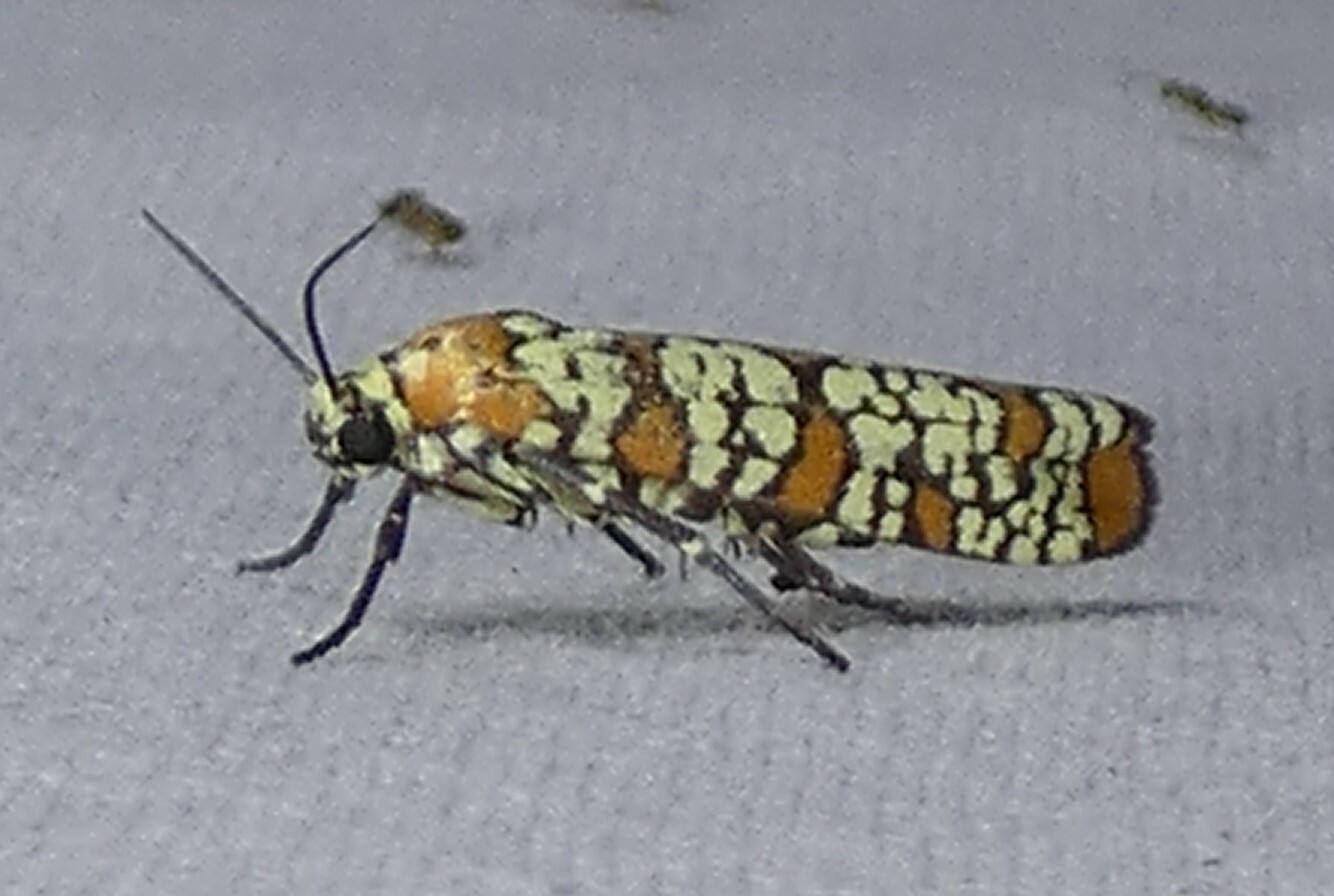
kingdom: Animalia
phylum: Arthropoda
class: Insecta
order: Lepidoptera
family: Attevidae
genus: Atteva
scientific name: Atteva punctella
